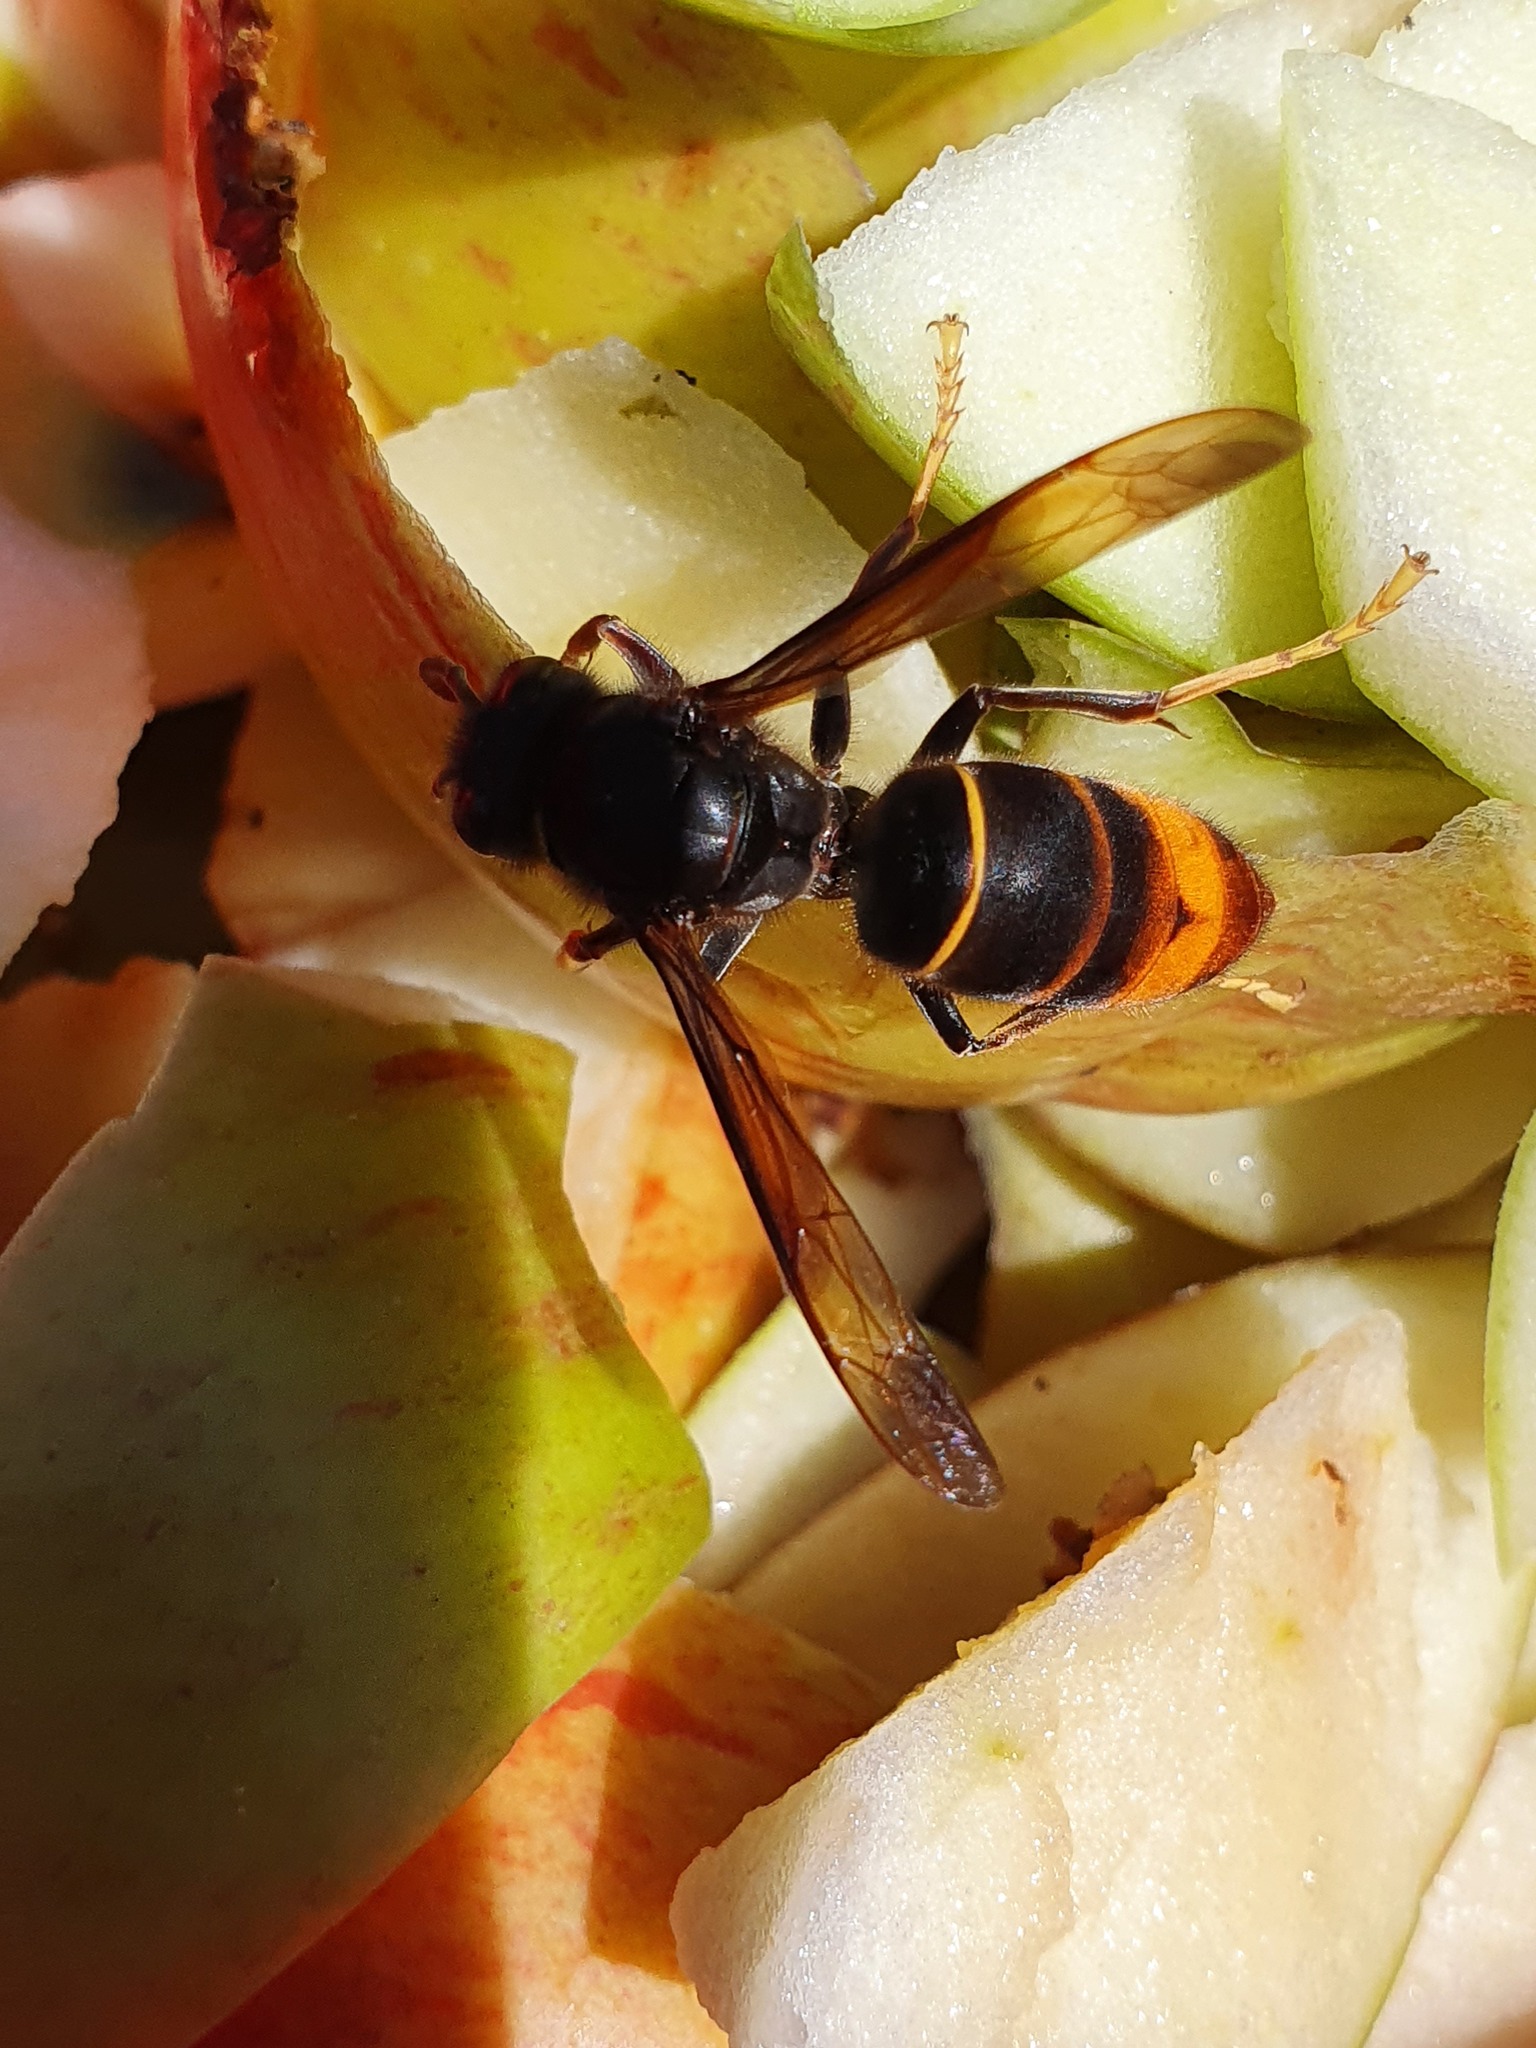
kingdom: Animalia
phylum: Arthropoda
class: Insecta
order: Hymenoptera
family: Vespidae
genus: Vespa
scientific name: Vespa velutina
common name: Asian hornet
